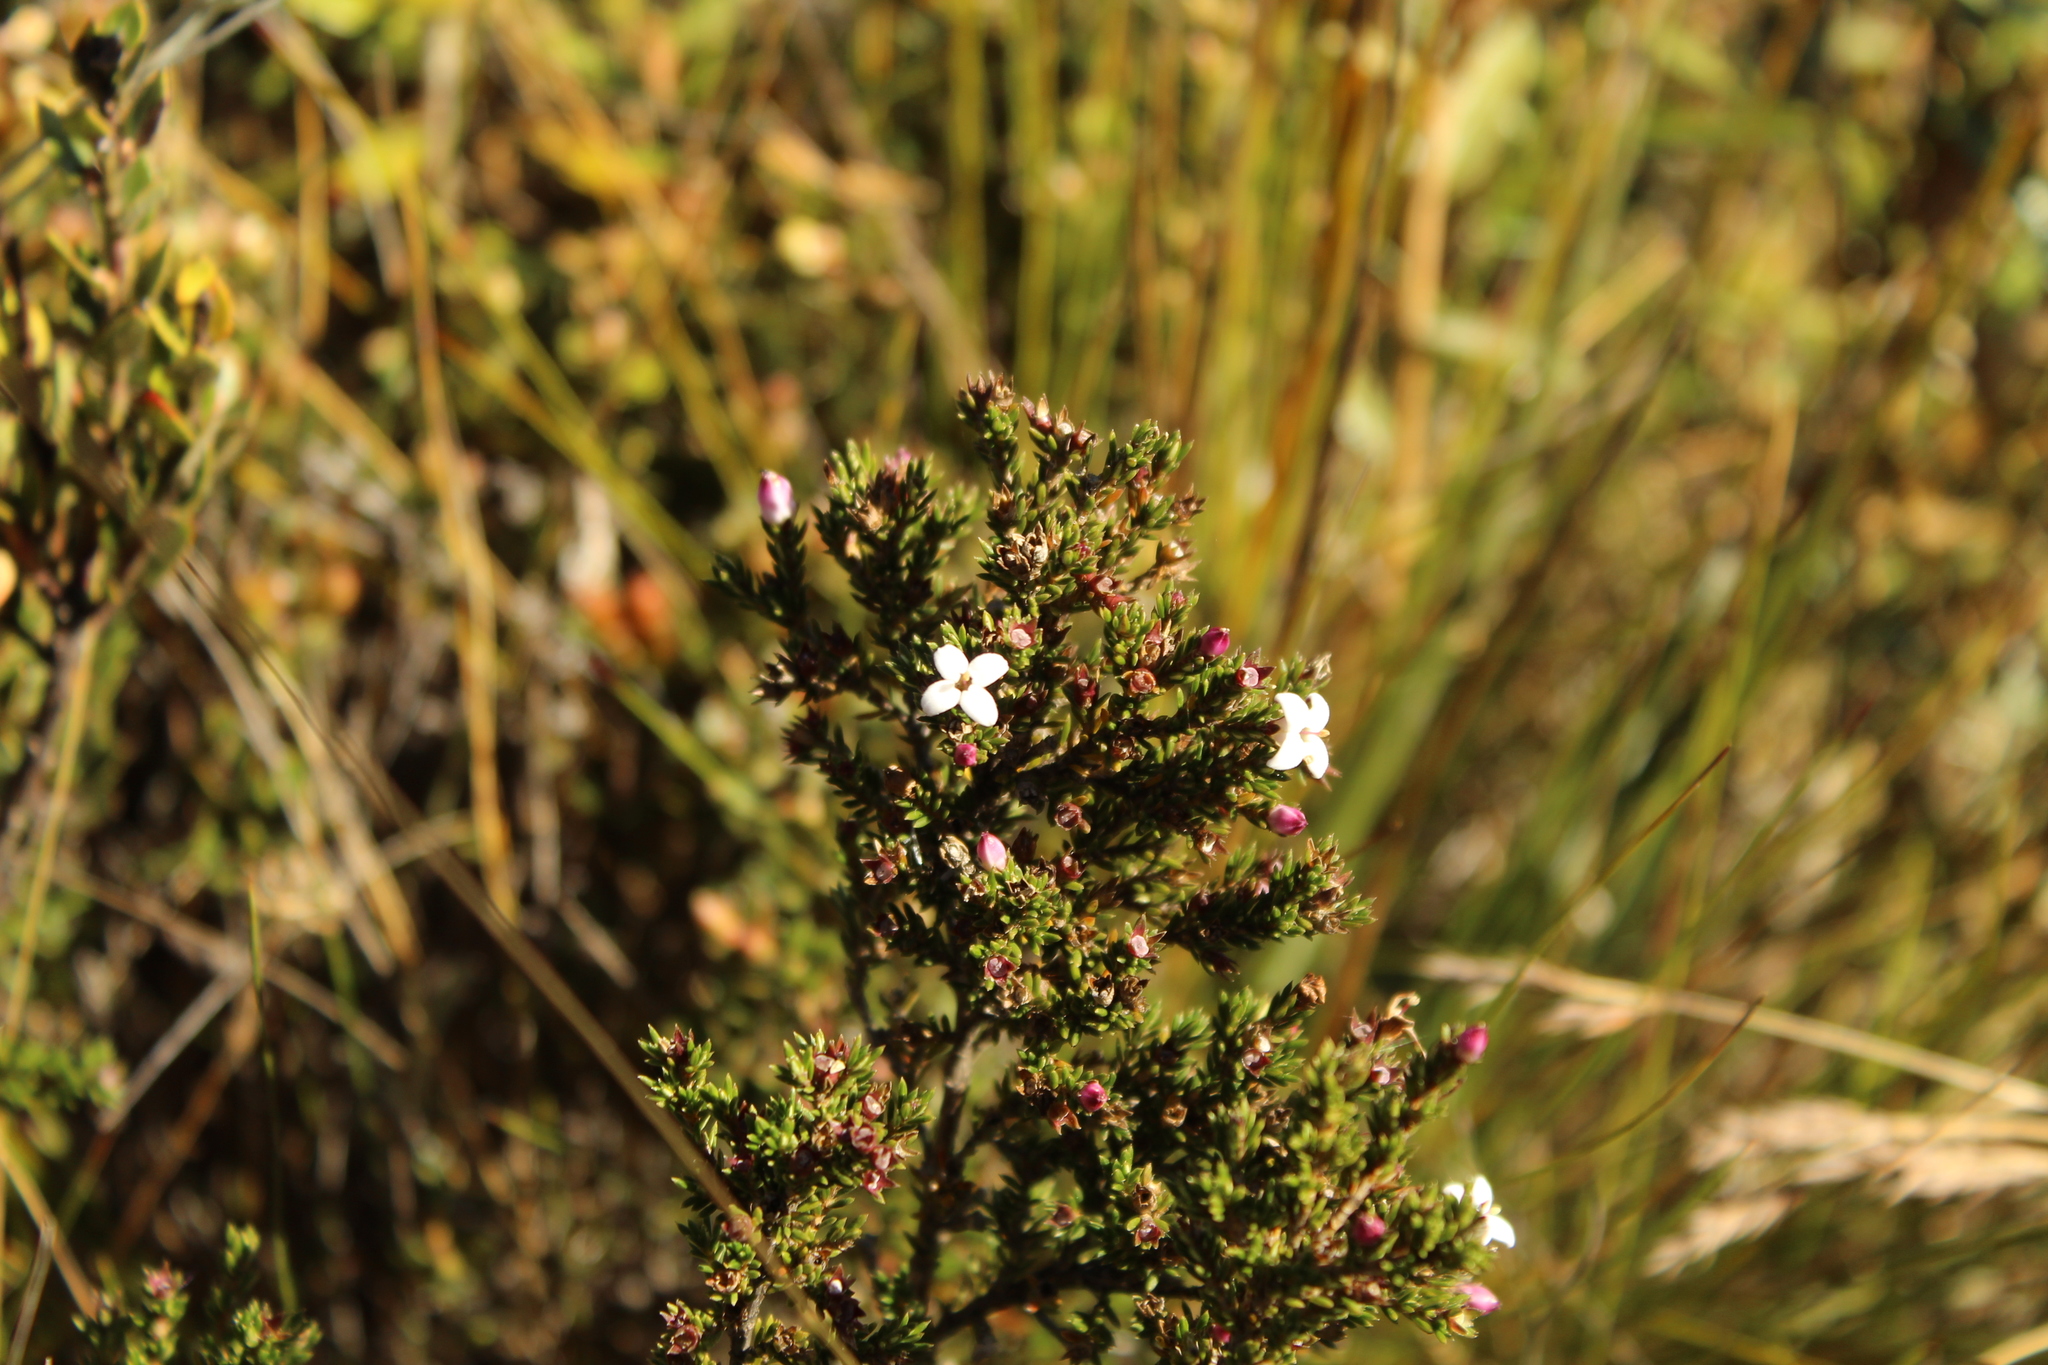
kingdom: Plantae
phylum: Tracheophyta
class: Magnoliopsida
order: Gentianales
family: Rubiaceae
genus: Arcytophyllum
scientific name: Arcytophyllum nitidum
